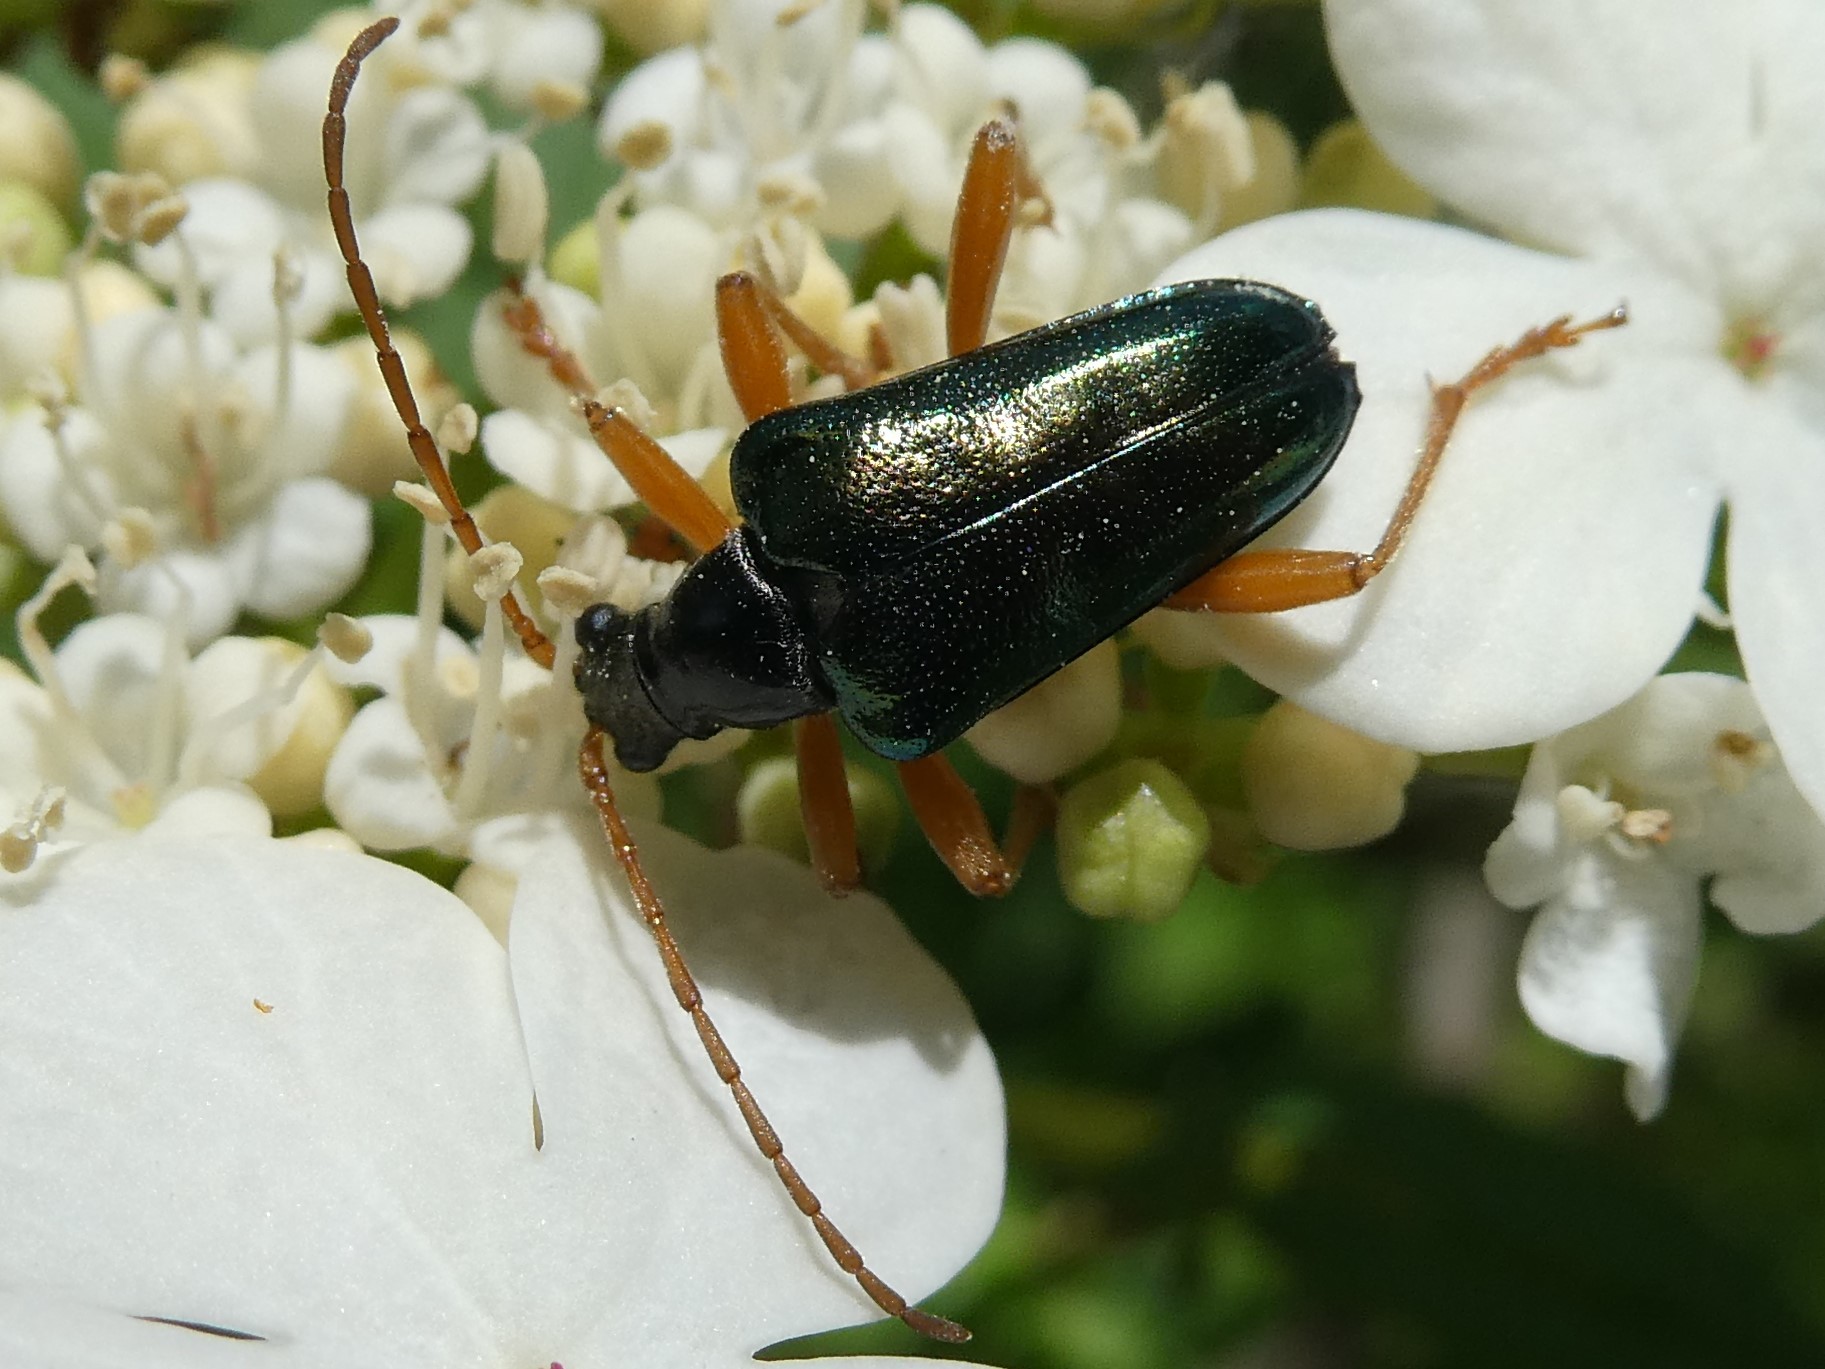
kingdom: Animalia
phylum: Arthropoda
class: Insecta
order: Coleoptera
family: Cerambycidae
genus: Gaurotes
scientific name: Gaurotes cyanipennis
